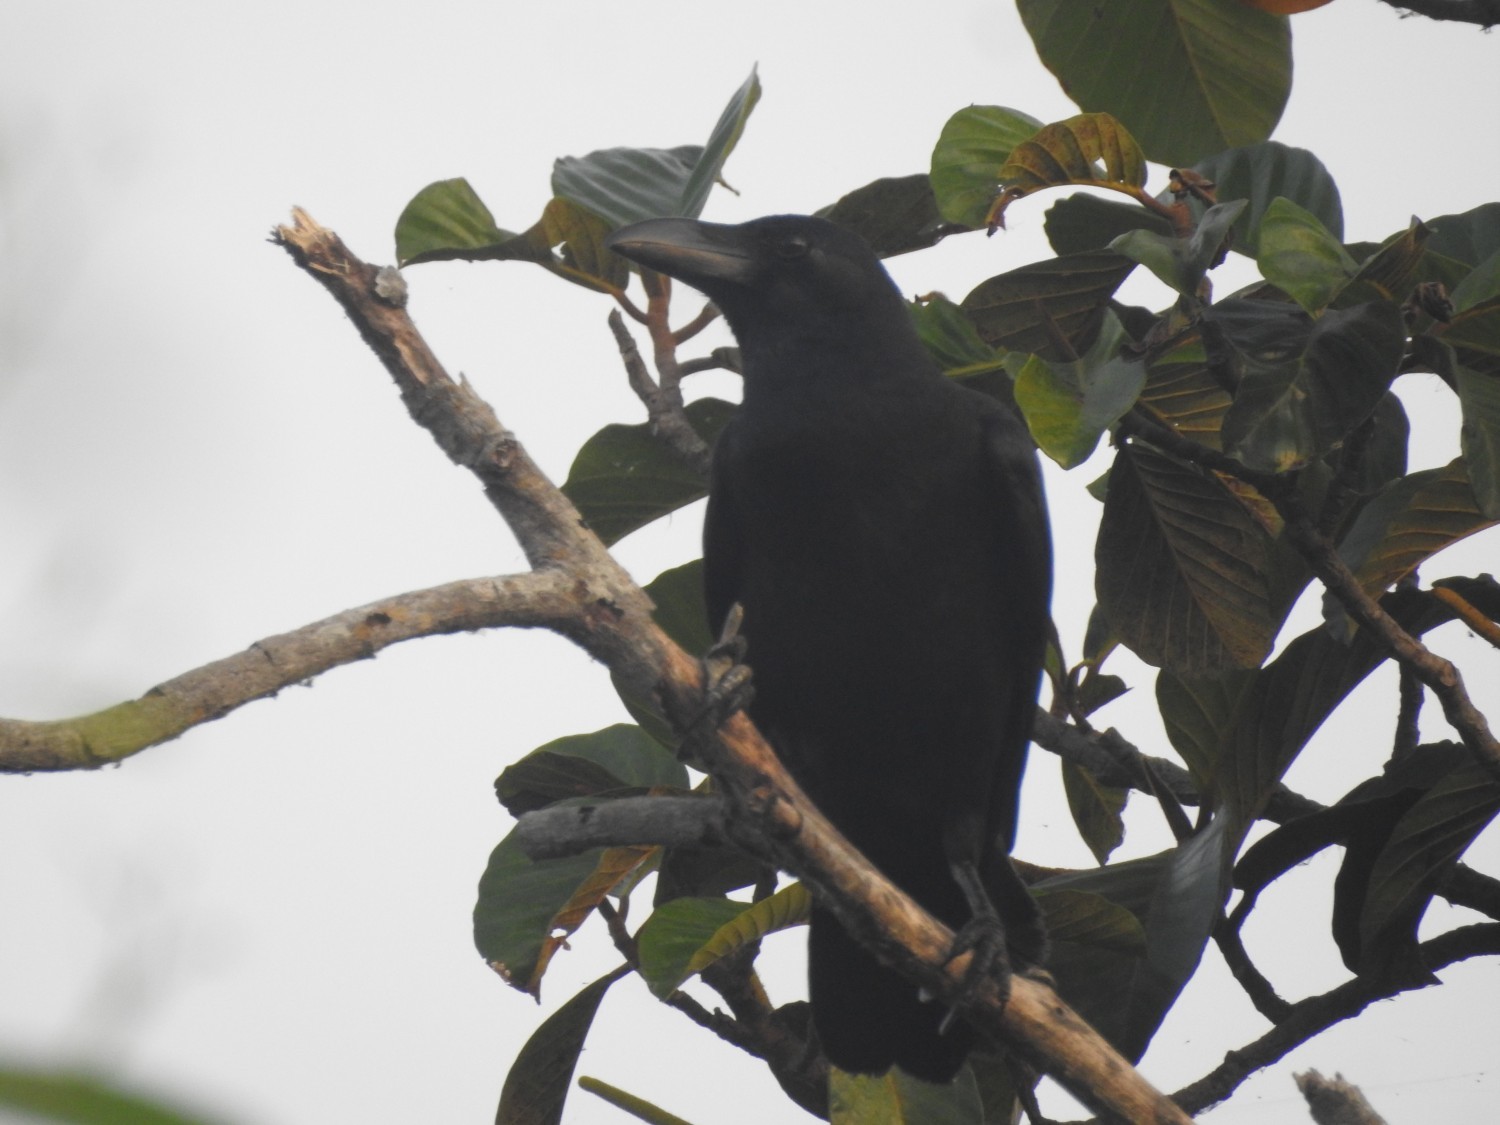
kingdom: Animalia
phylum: Chordata
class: Aves
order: Passeriformes
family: Corvidae
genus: Corvus
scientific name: Corvus macrorhynchos
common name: Large-billed crow
